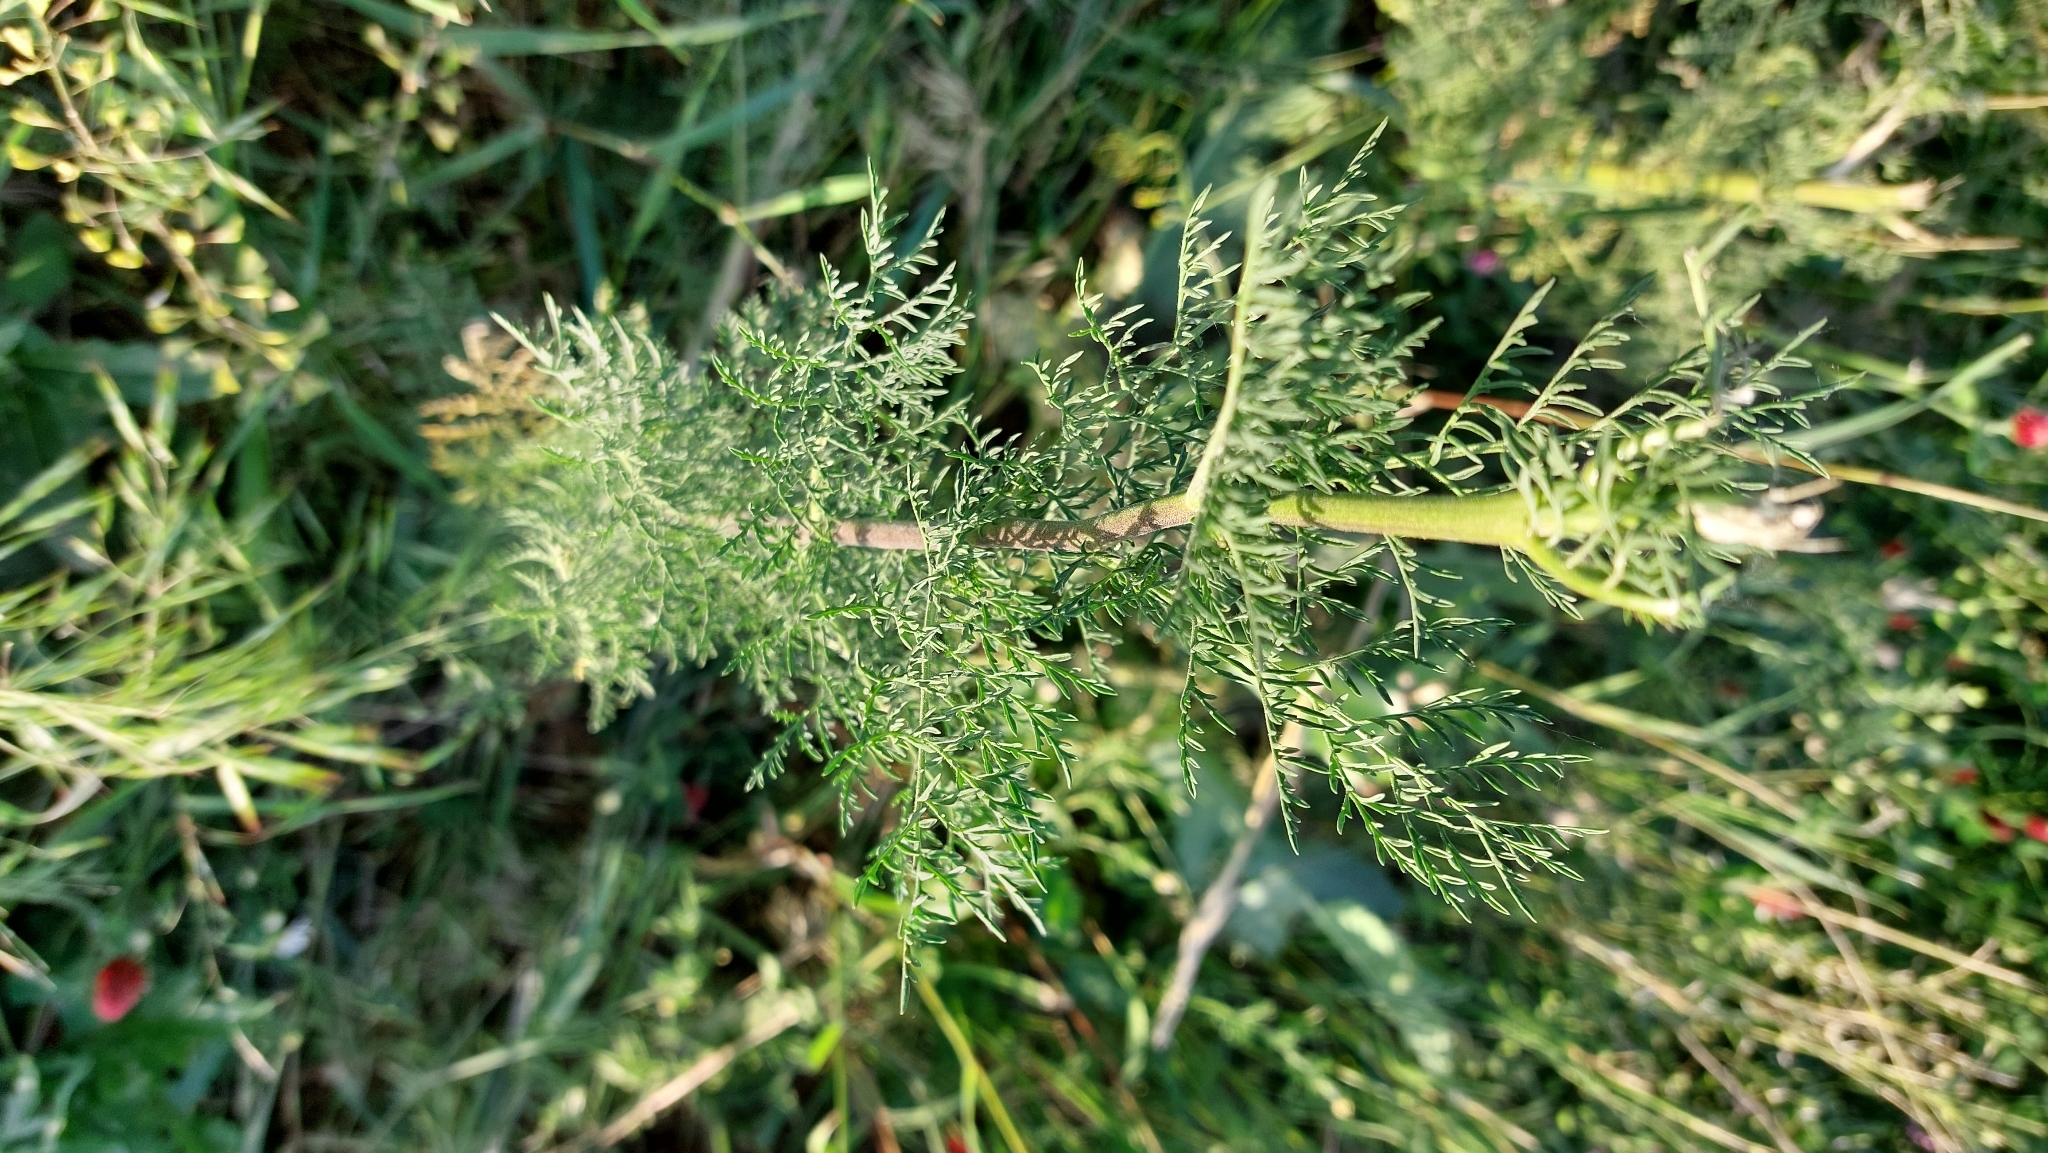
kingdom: Plantae
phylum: Tracheophyta
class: Magnoliopsida
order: Brassicales
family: Brassicaceae
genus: Descurainia
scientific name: Descurainia sophia
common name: Flixweed
